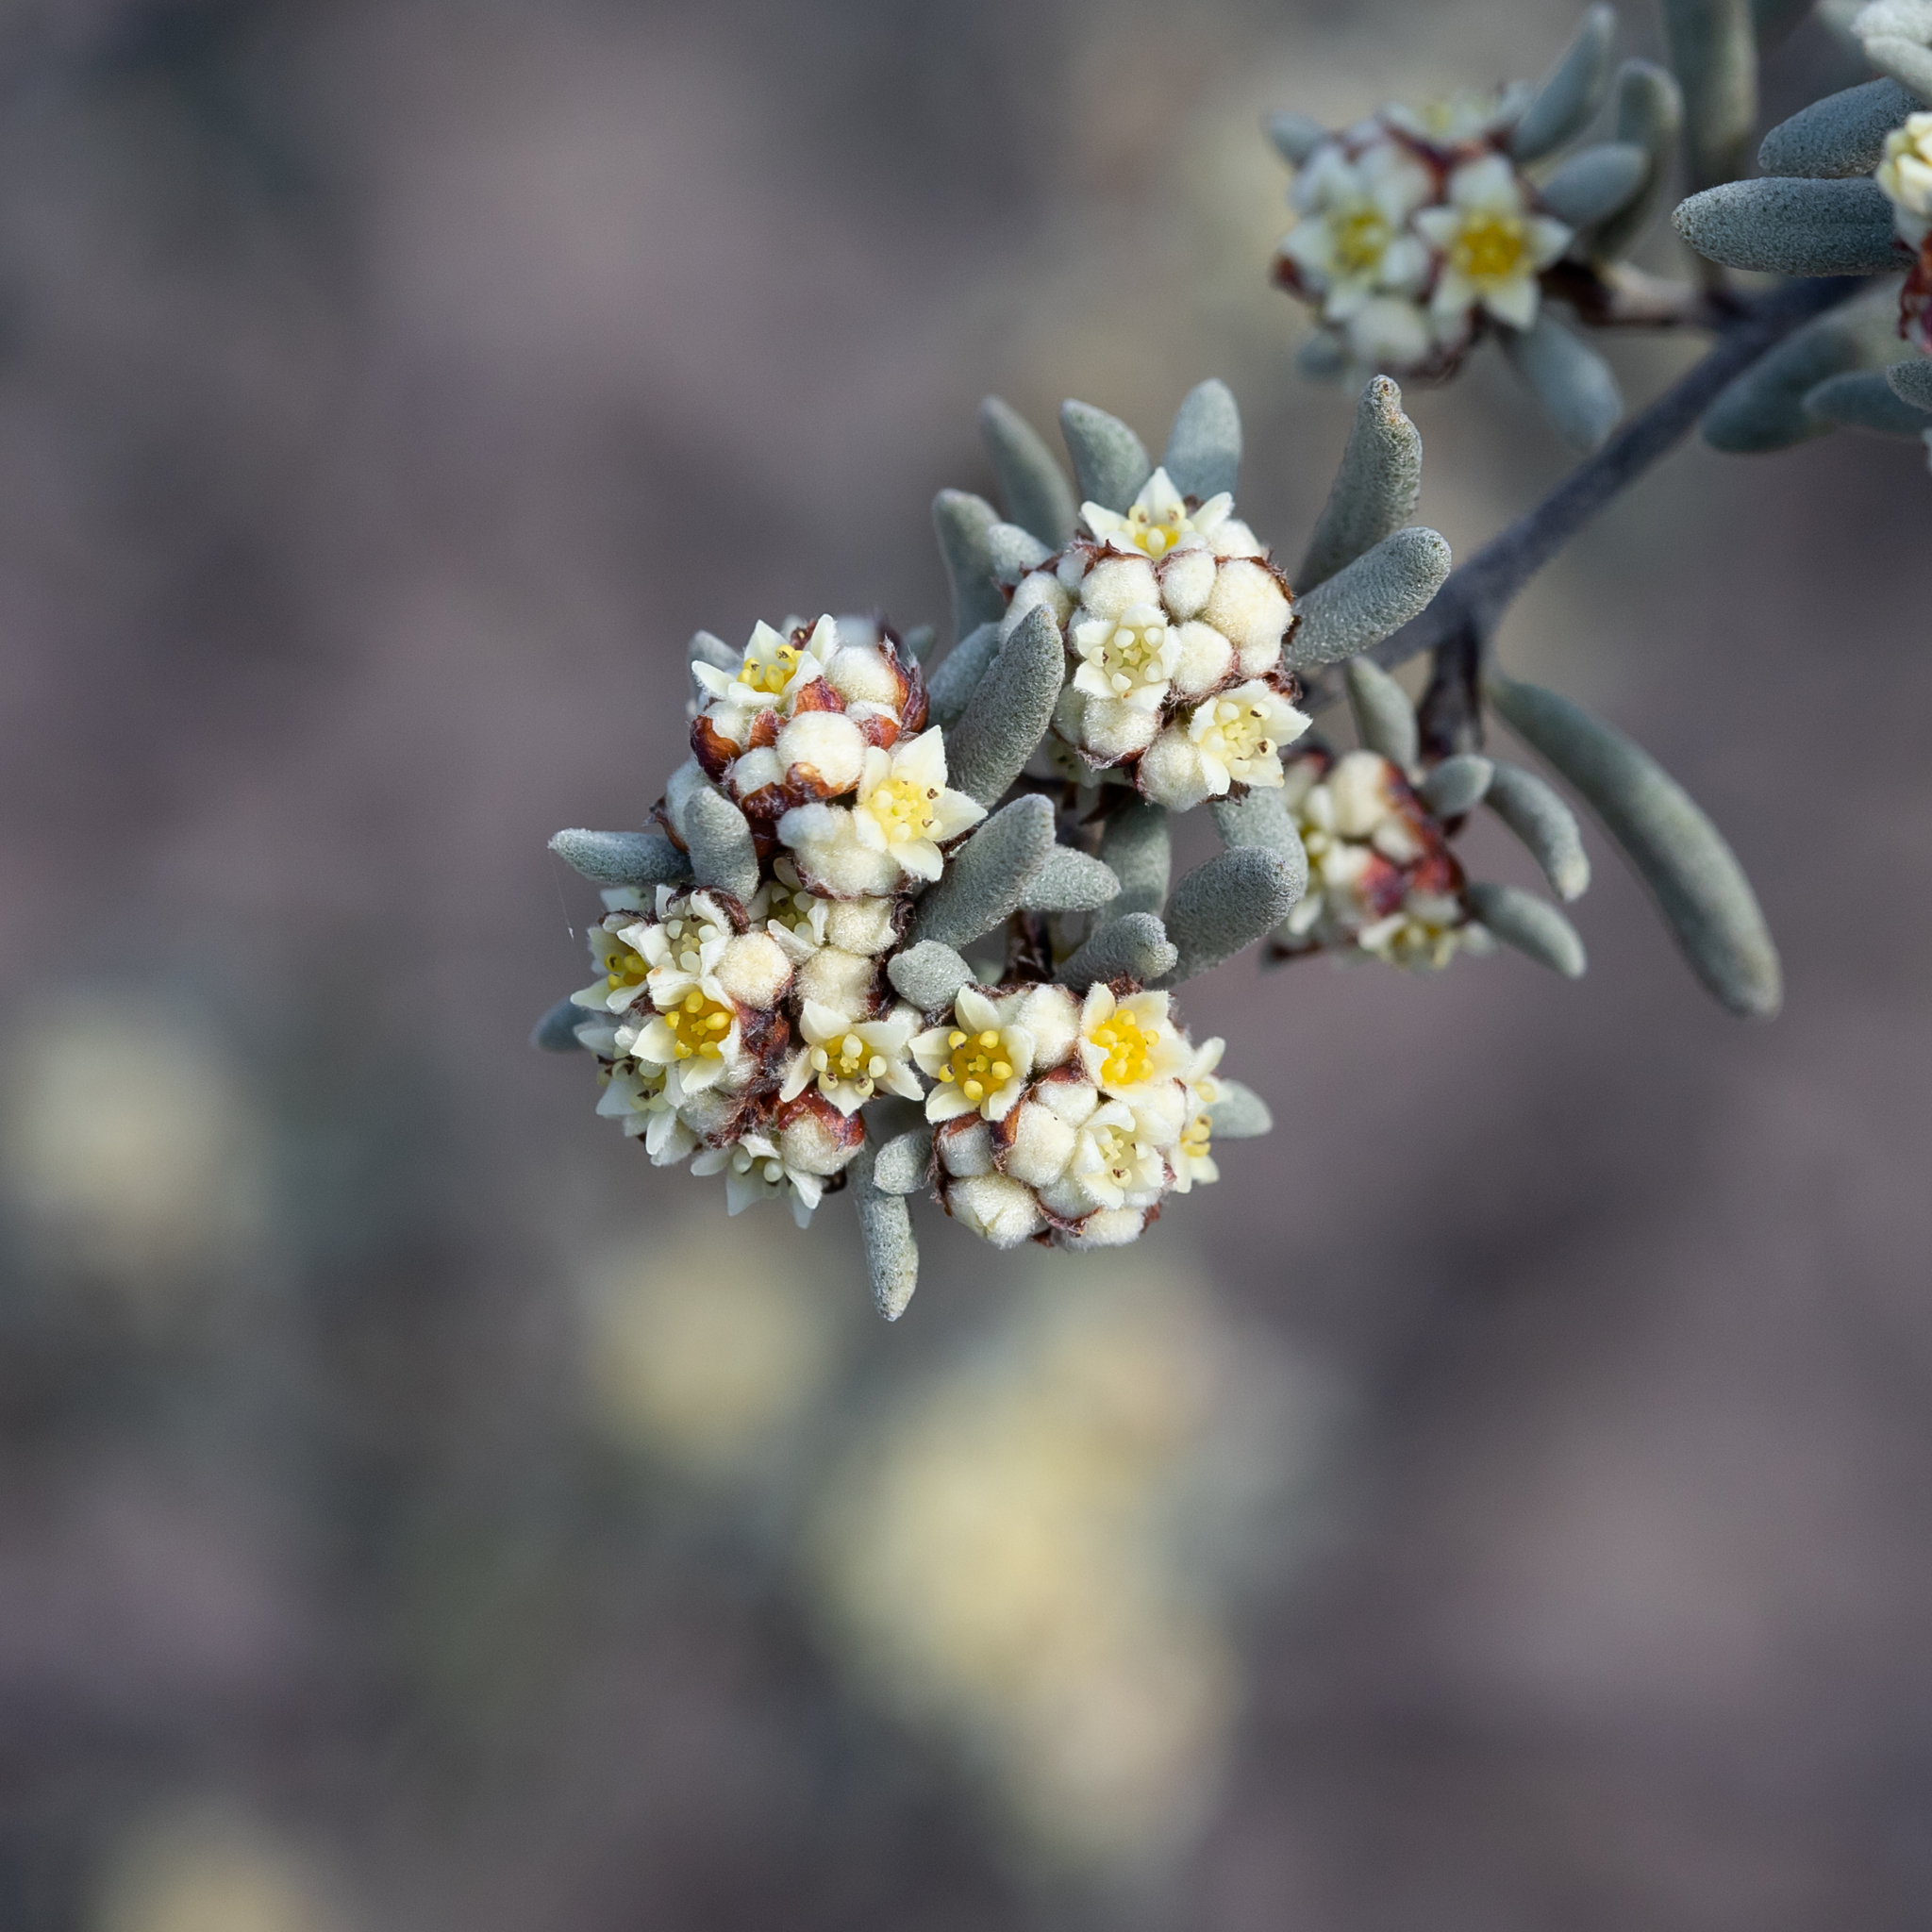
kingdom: Plantae
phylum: Tracheophyta
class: Magnoliopsida
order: Rosales
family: Rhamnaceae
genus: Spyridium
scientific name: Spyridium subochreatum
